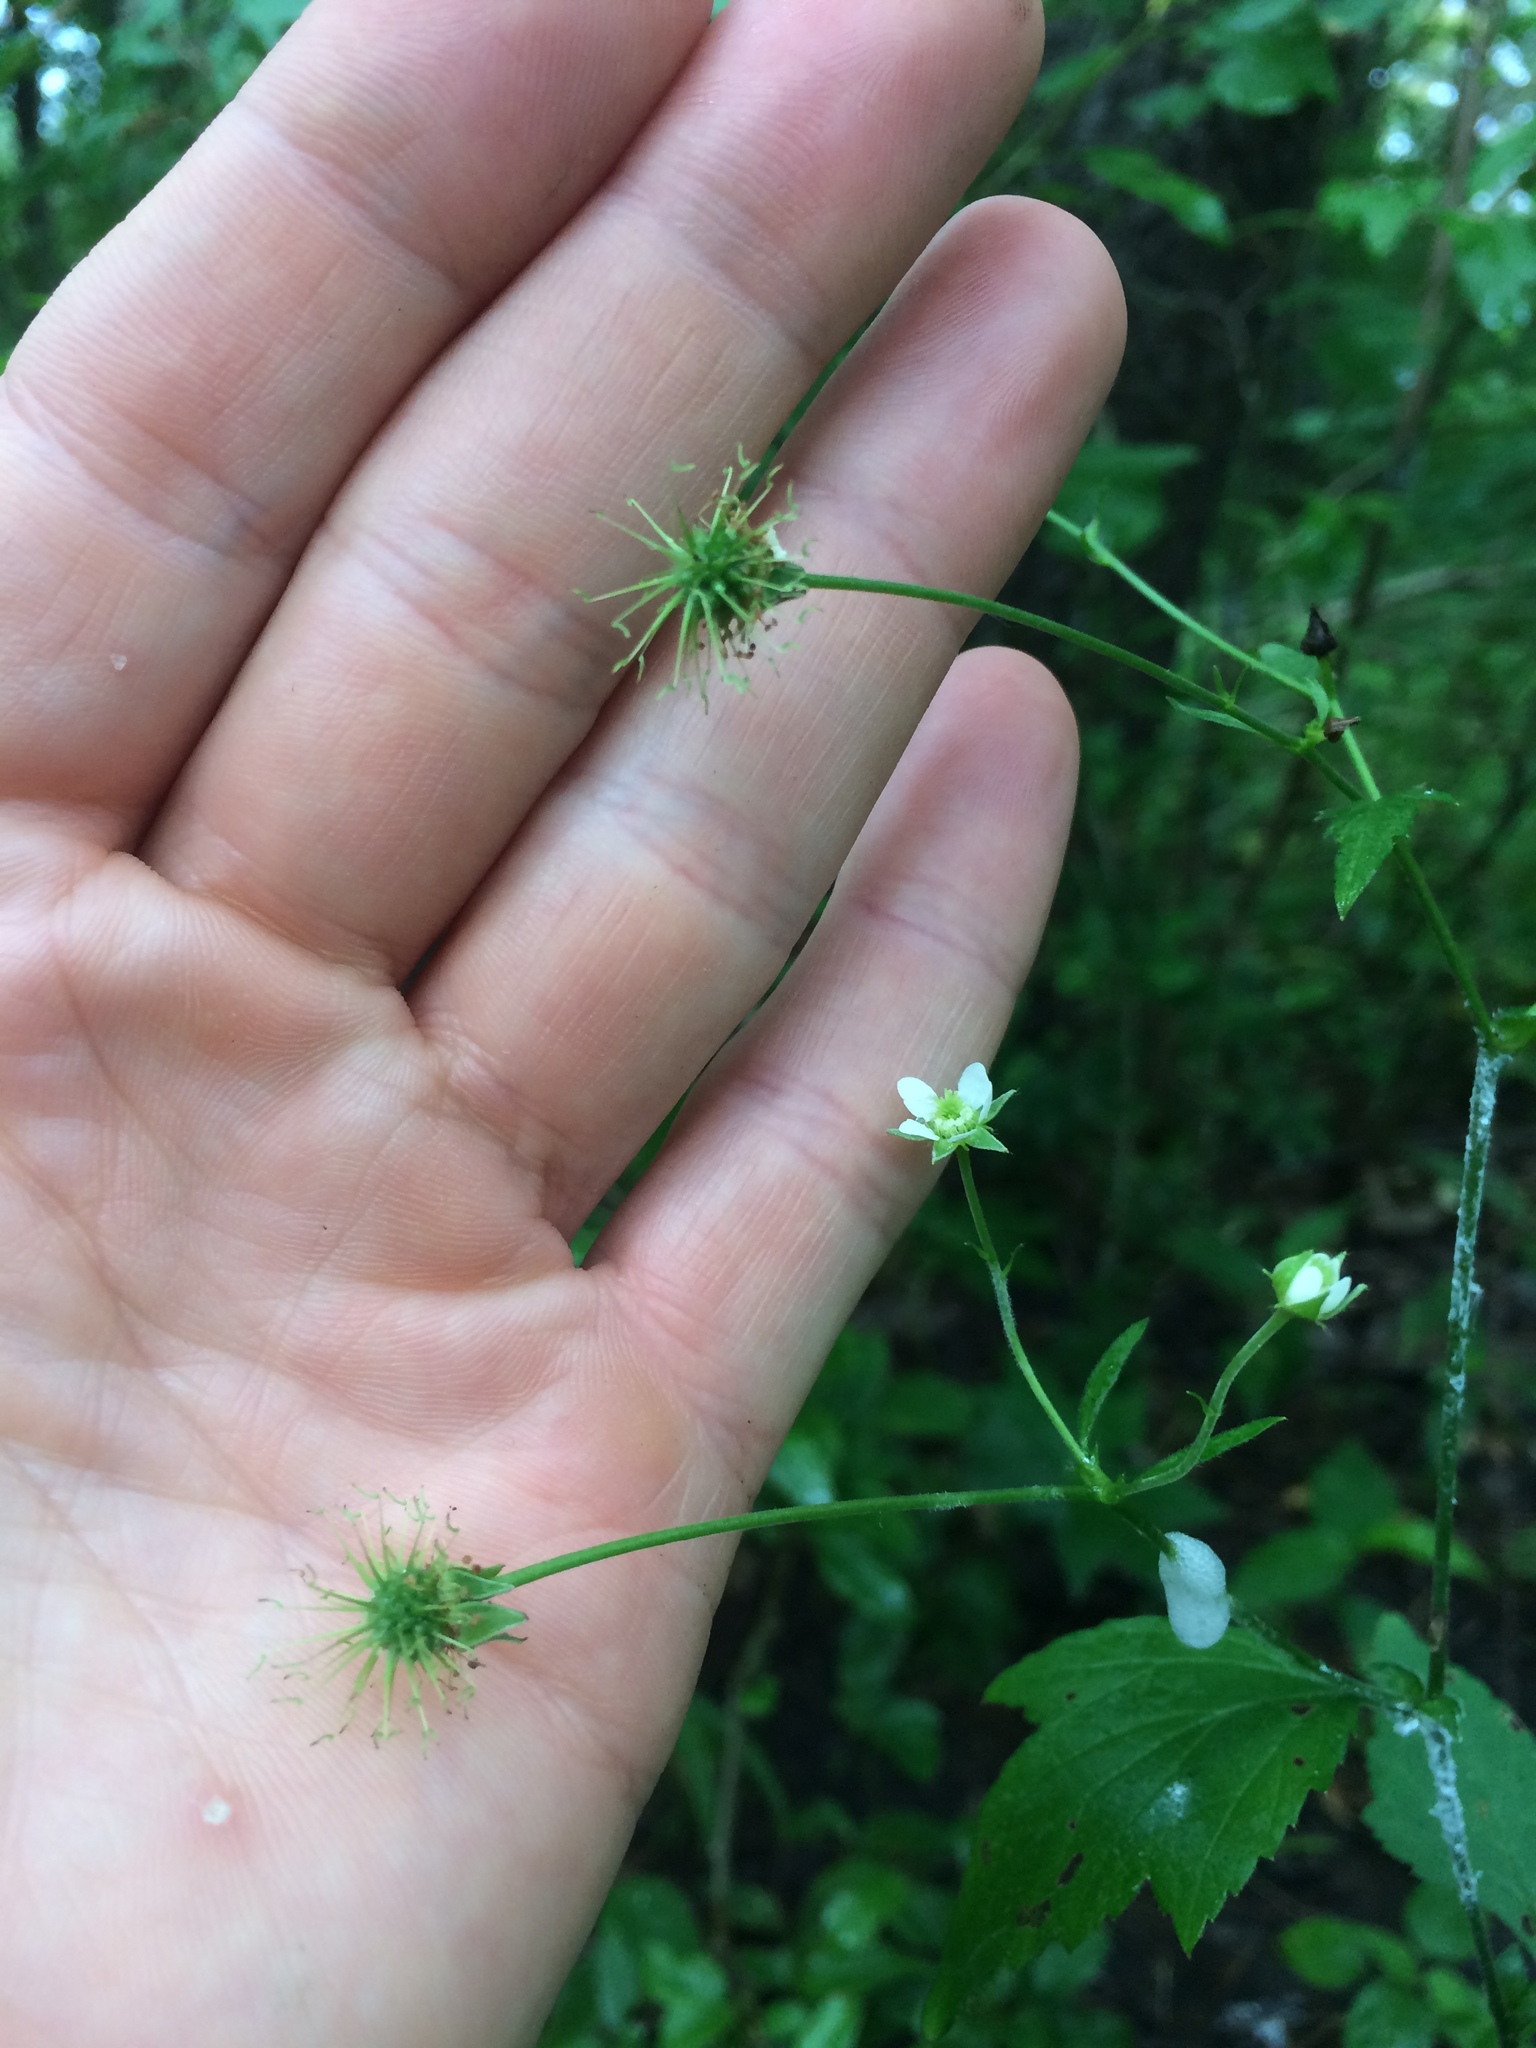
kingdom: Plantae
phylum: Tracheophyta
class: Magnoliopsida
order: Rosales
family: Rosaceae
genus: Geum
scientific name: Geum canadense
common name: White avens
